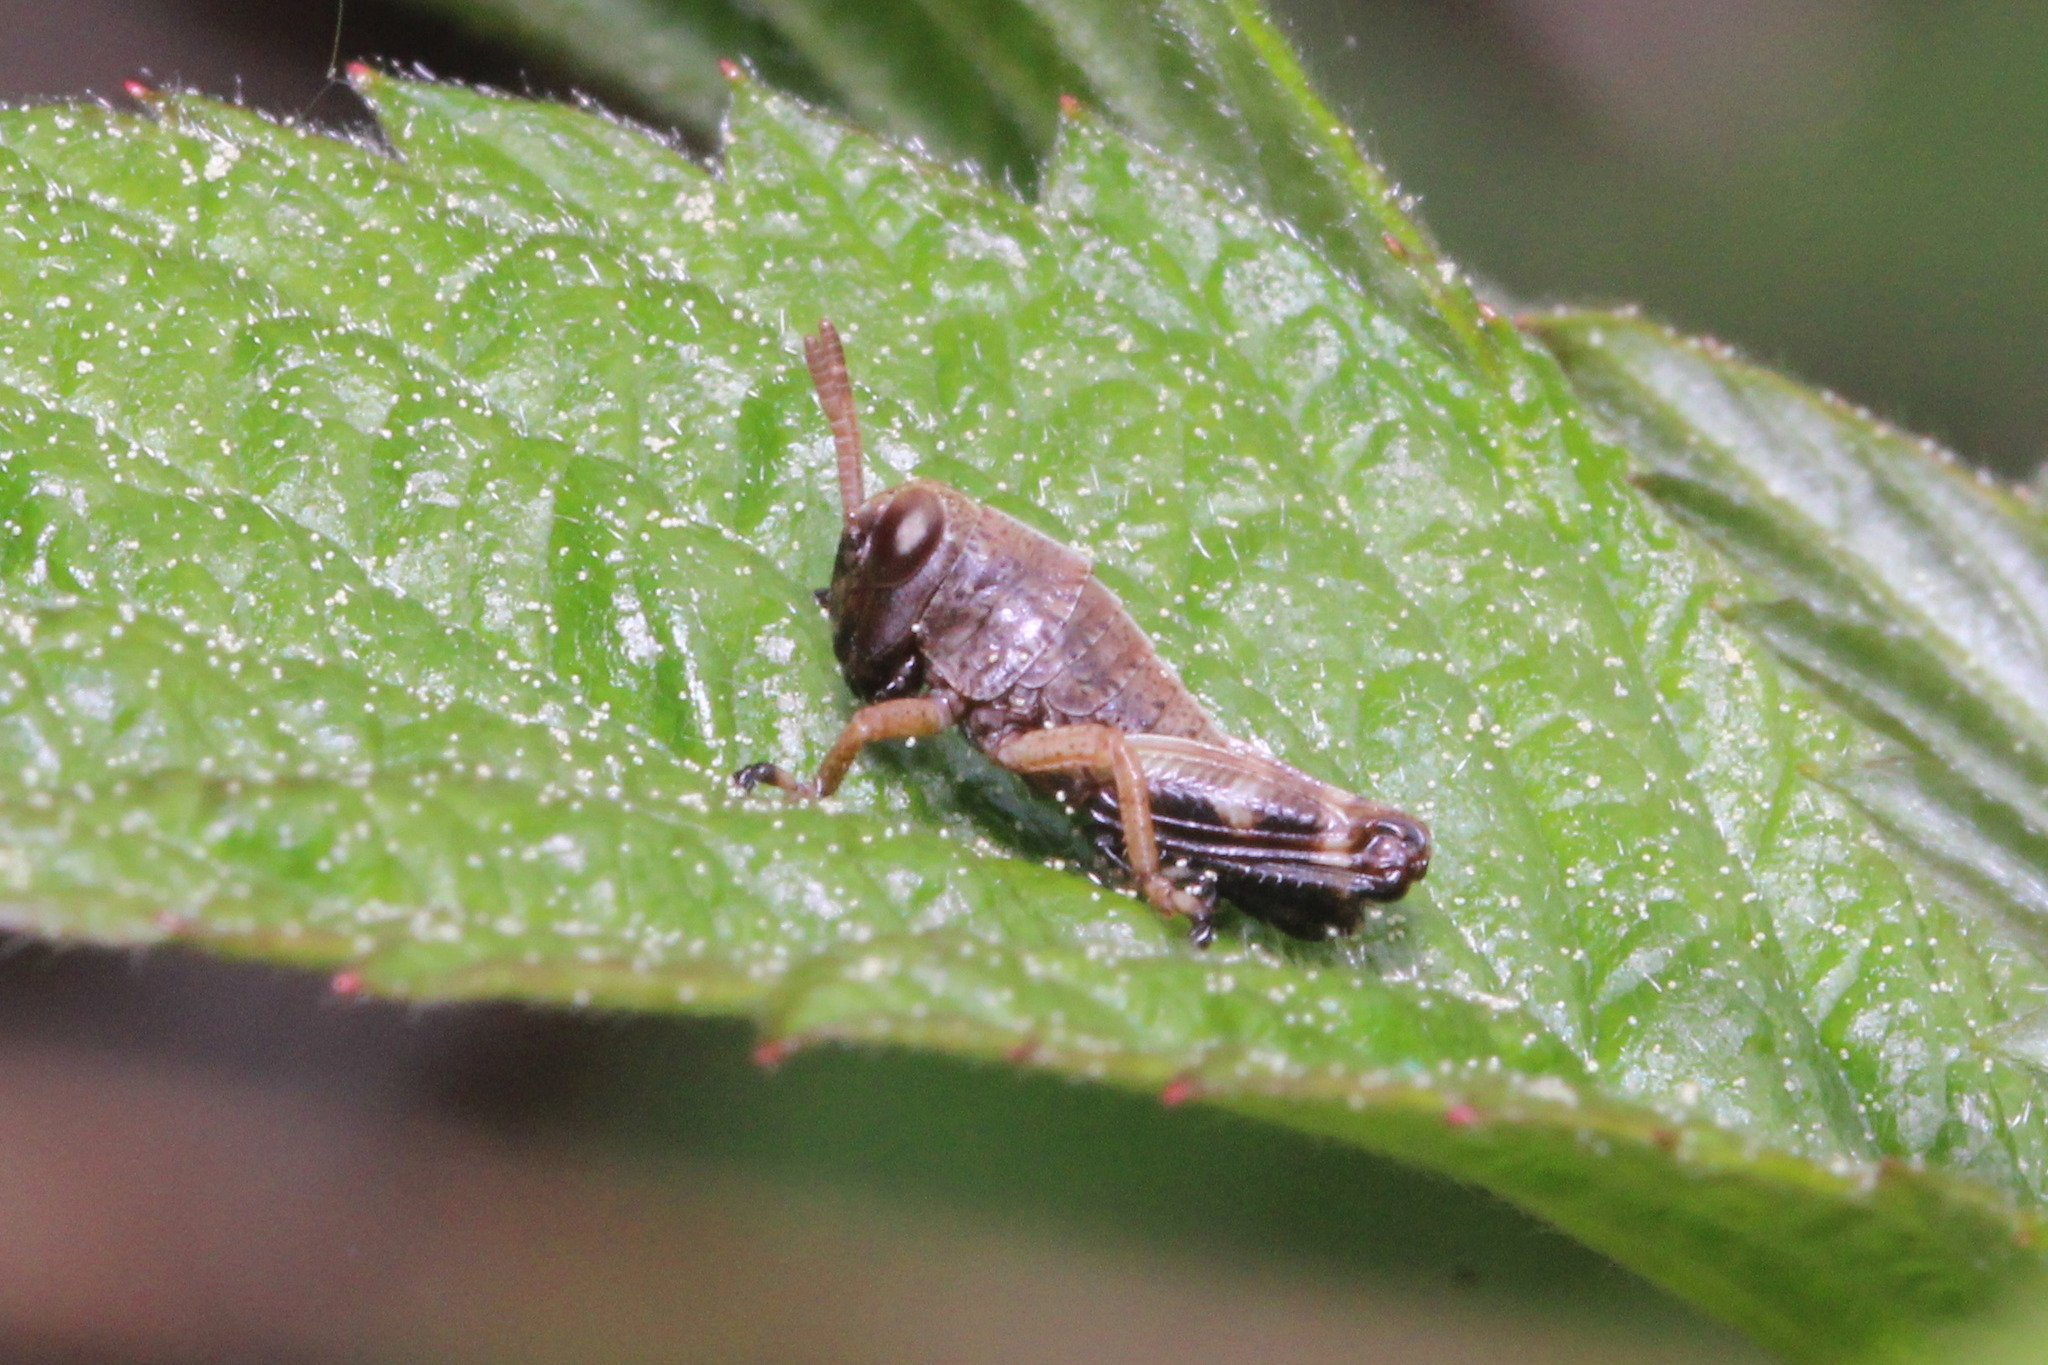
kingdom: Animalia
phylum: Arthropoda
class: Insecta
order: Orthoptera
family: Acrididae
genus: Miramella
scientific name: Miramella alpina
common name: Green mountain grasshopper
